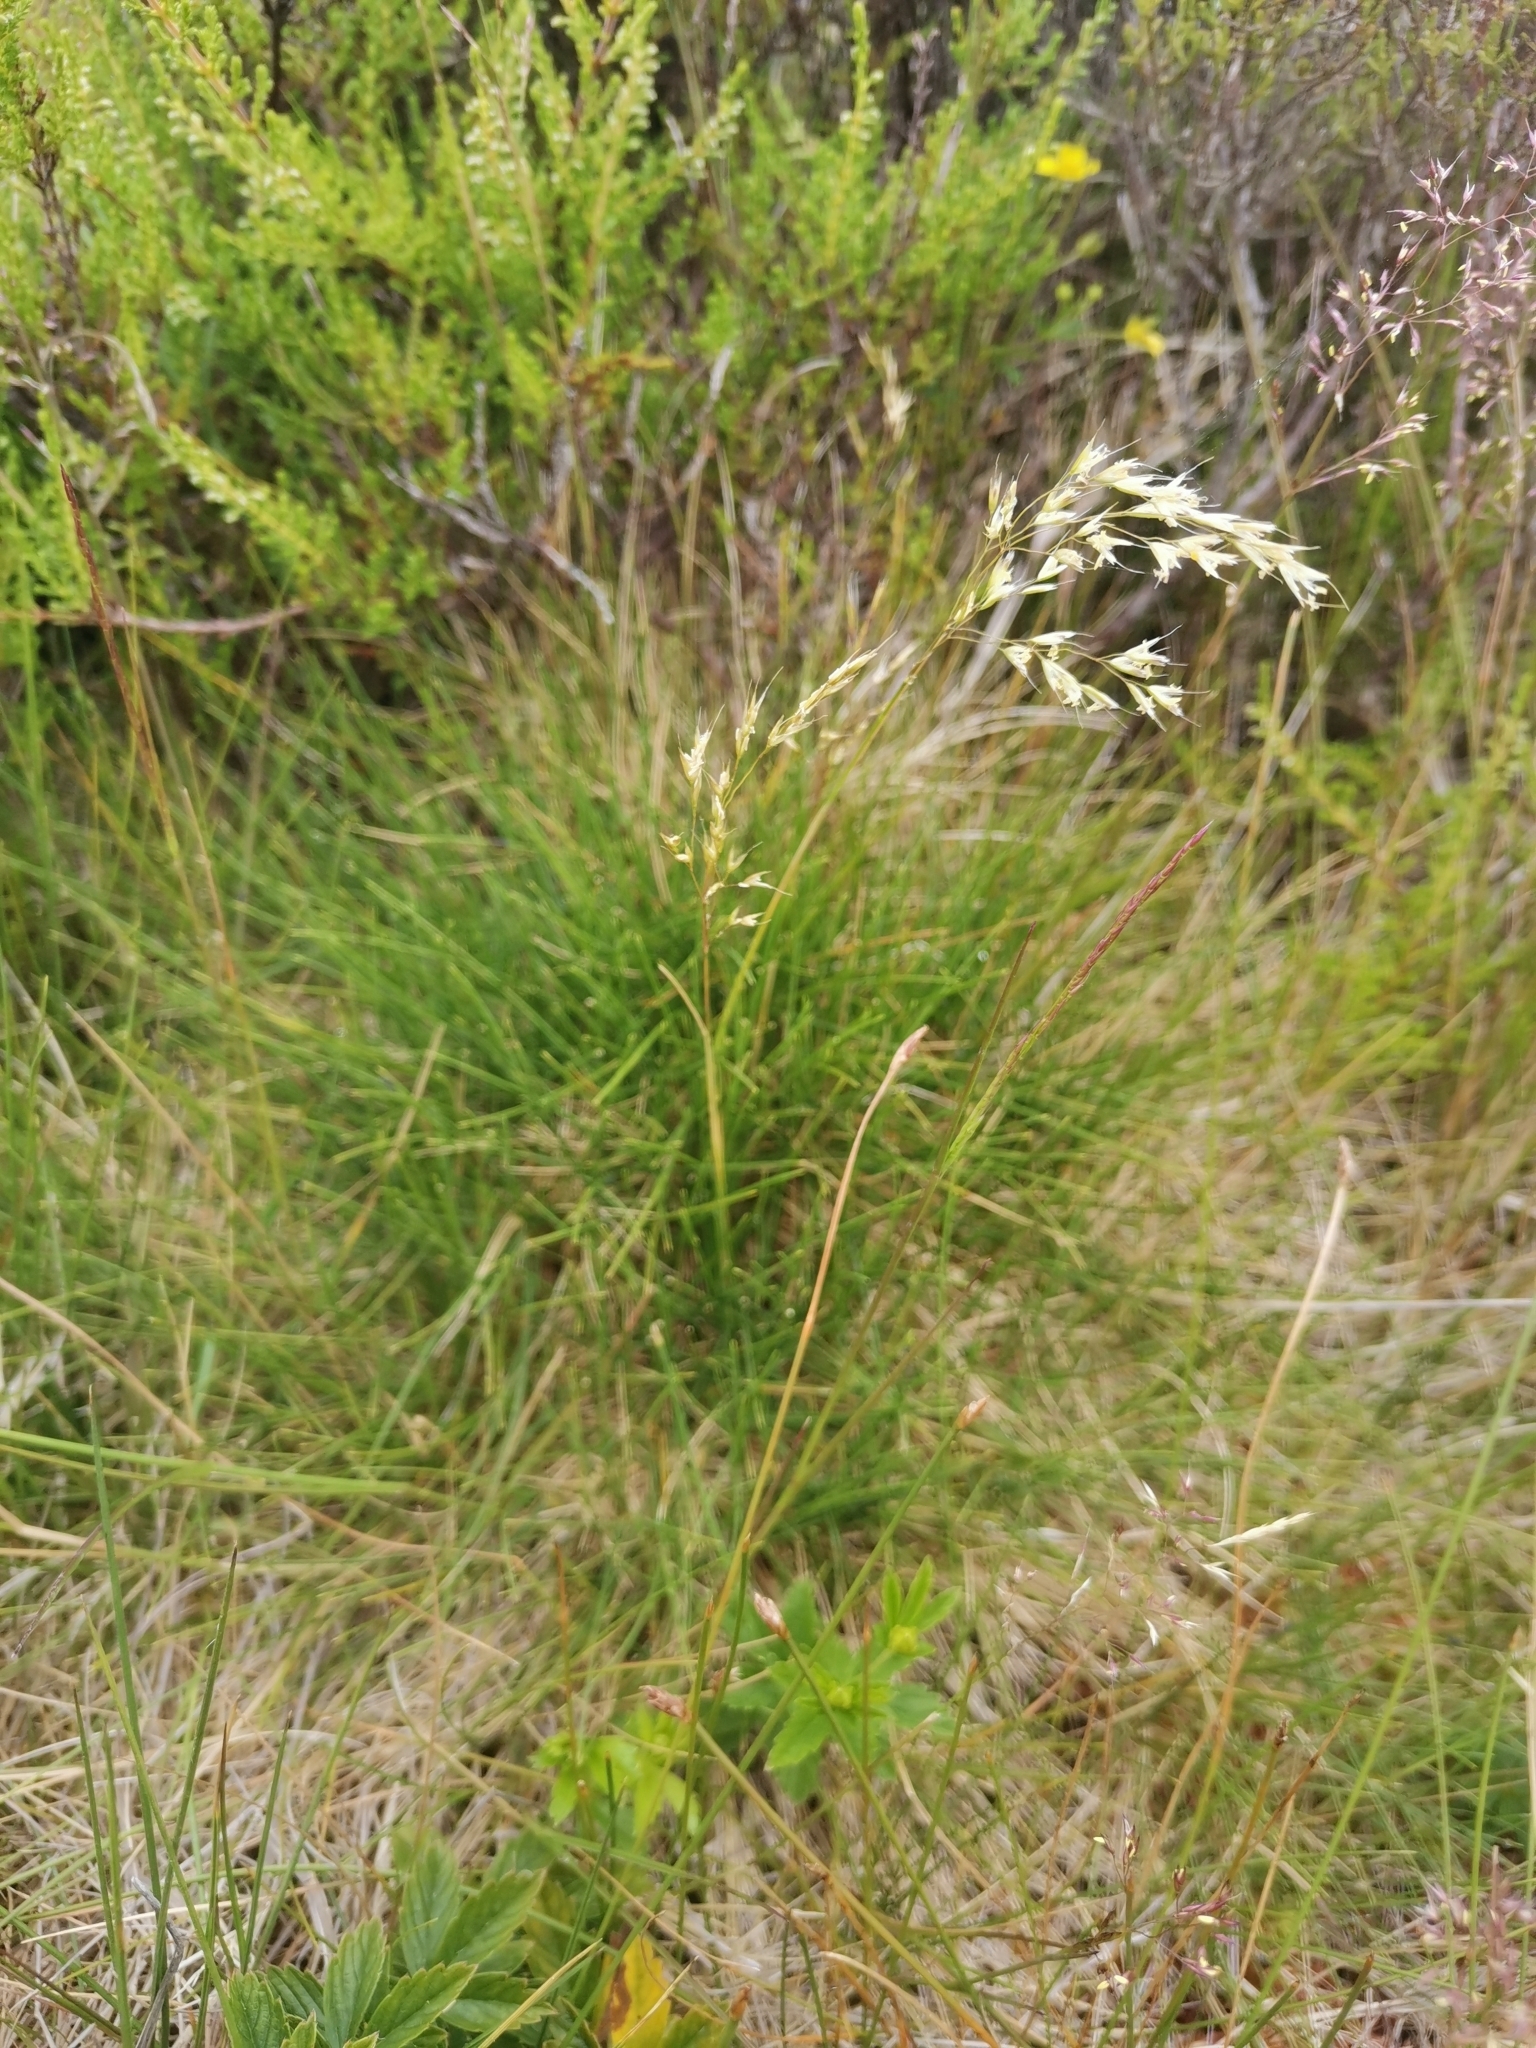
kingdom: Plantae
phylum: Tracheophyta
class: Liliopsida
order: Poales
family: Poaceae
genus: Avenella
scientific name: Avenella foliosa
